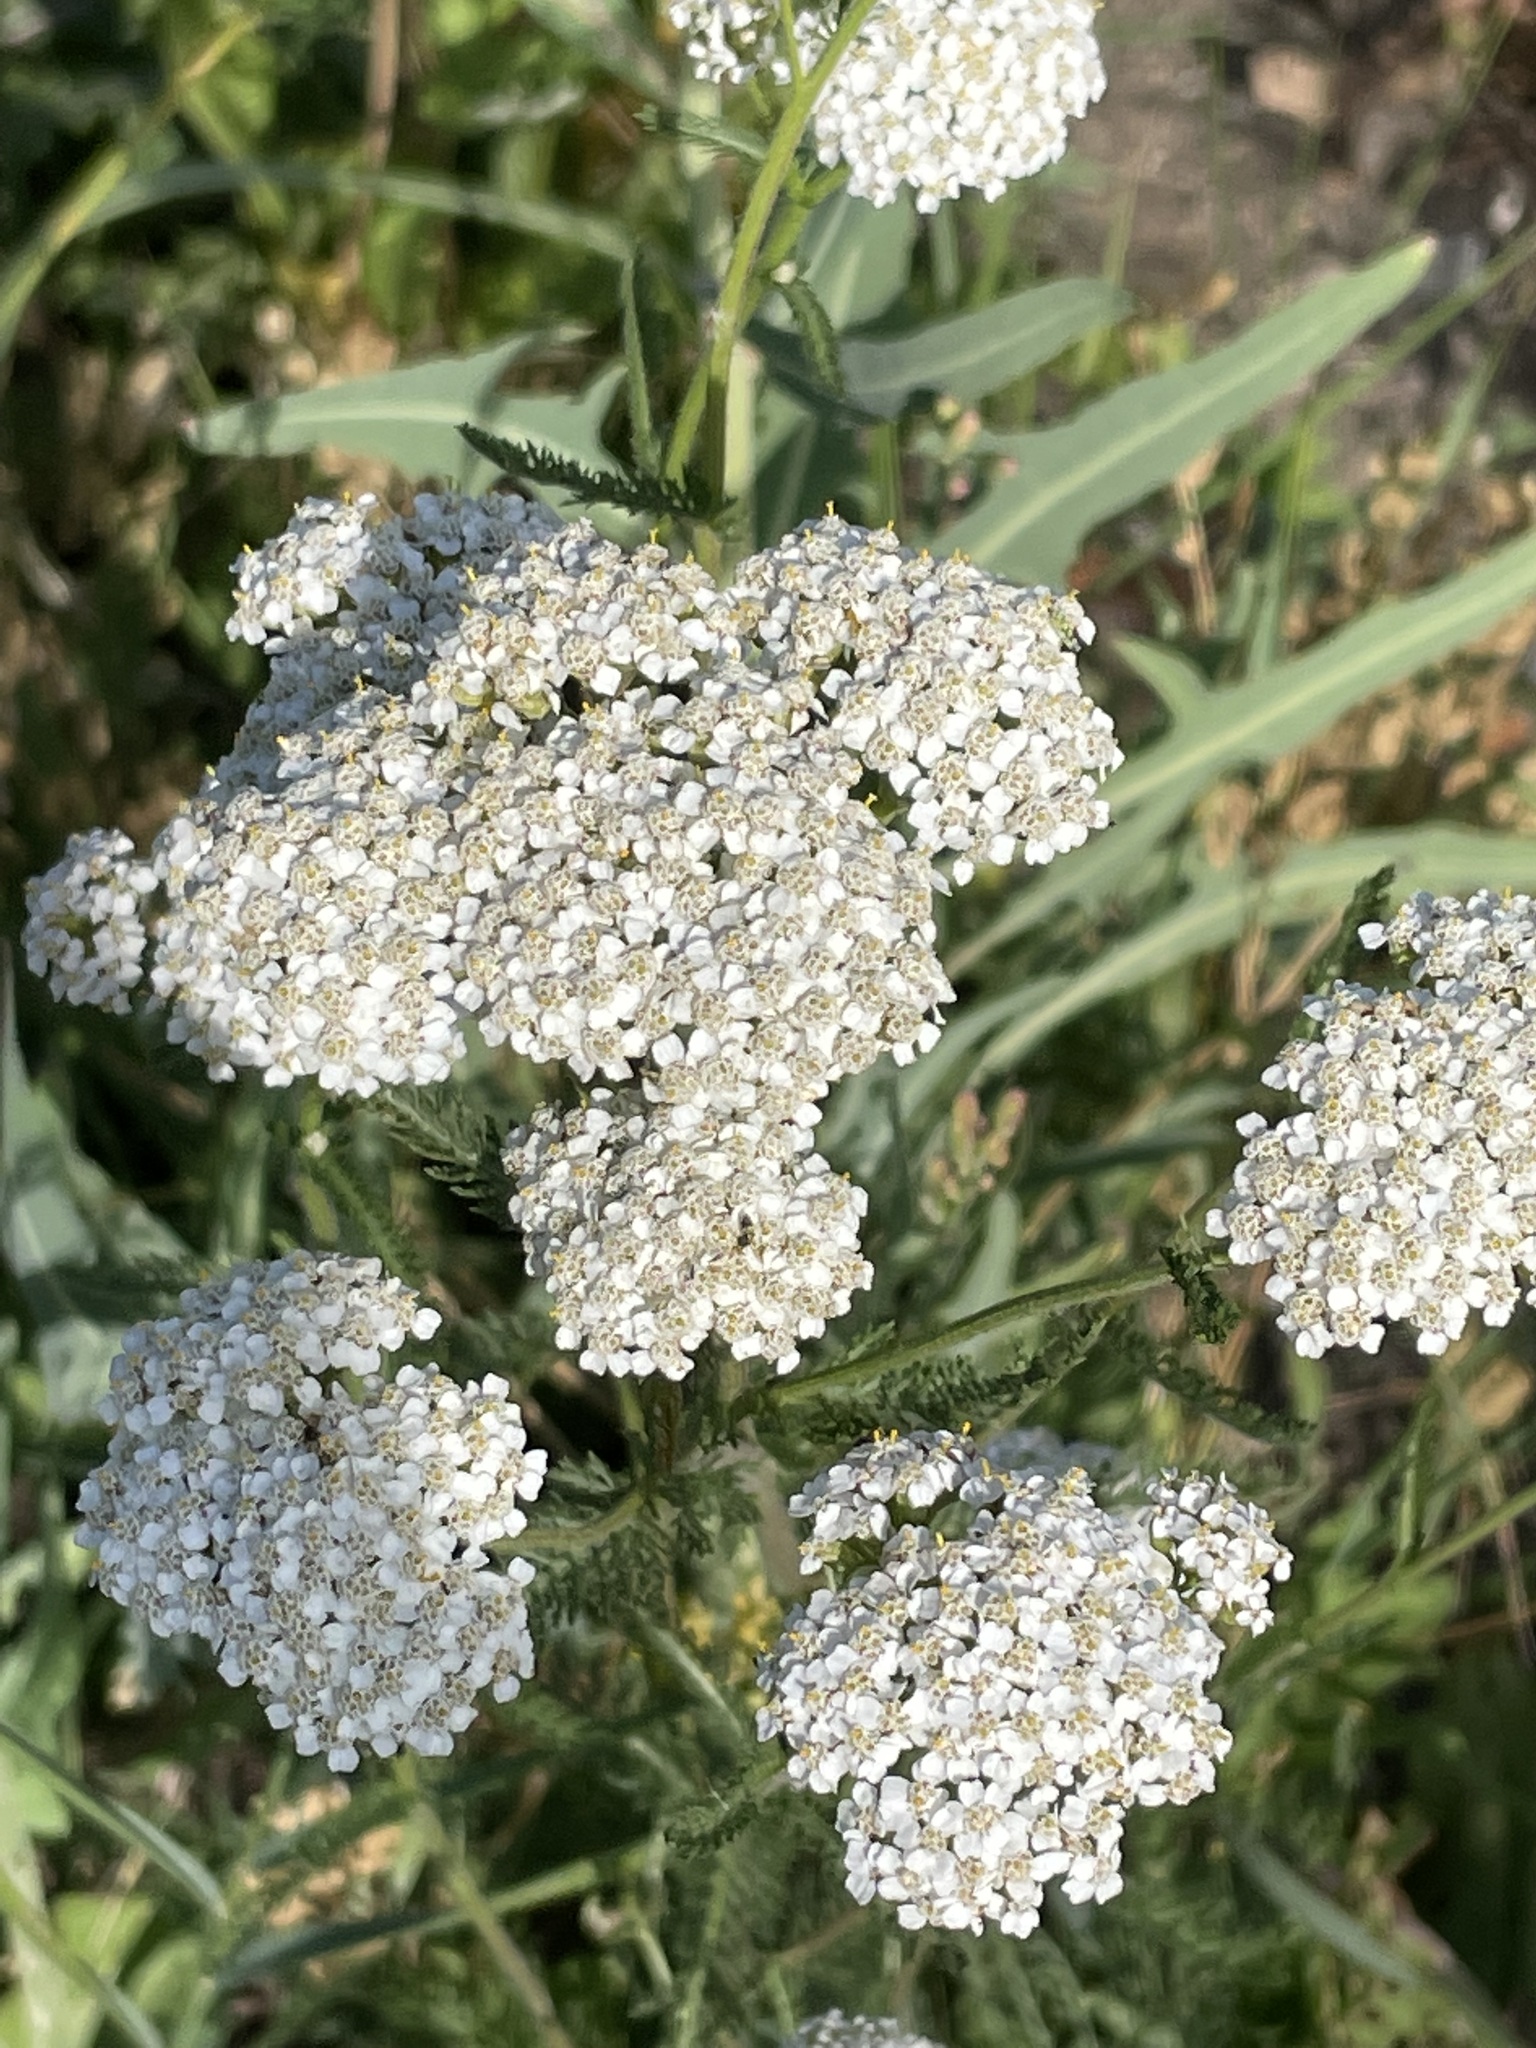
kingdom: Plantae
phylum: Tracheophyta
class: Magnoliopsida
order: Asterales
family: Asteraceae
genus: Achillea
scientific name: Achillea millefolium
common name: Yarrow
